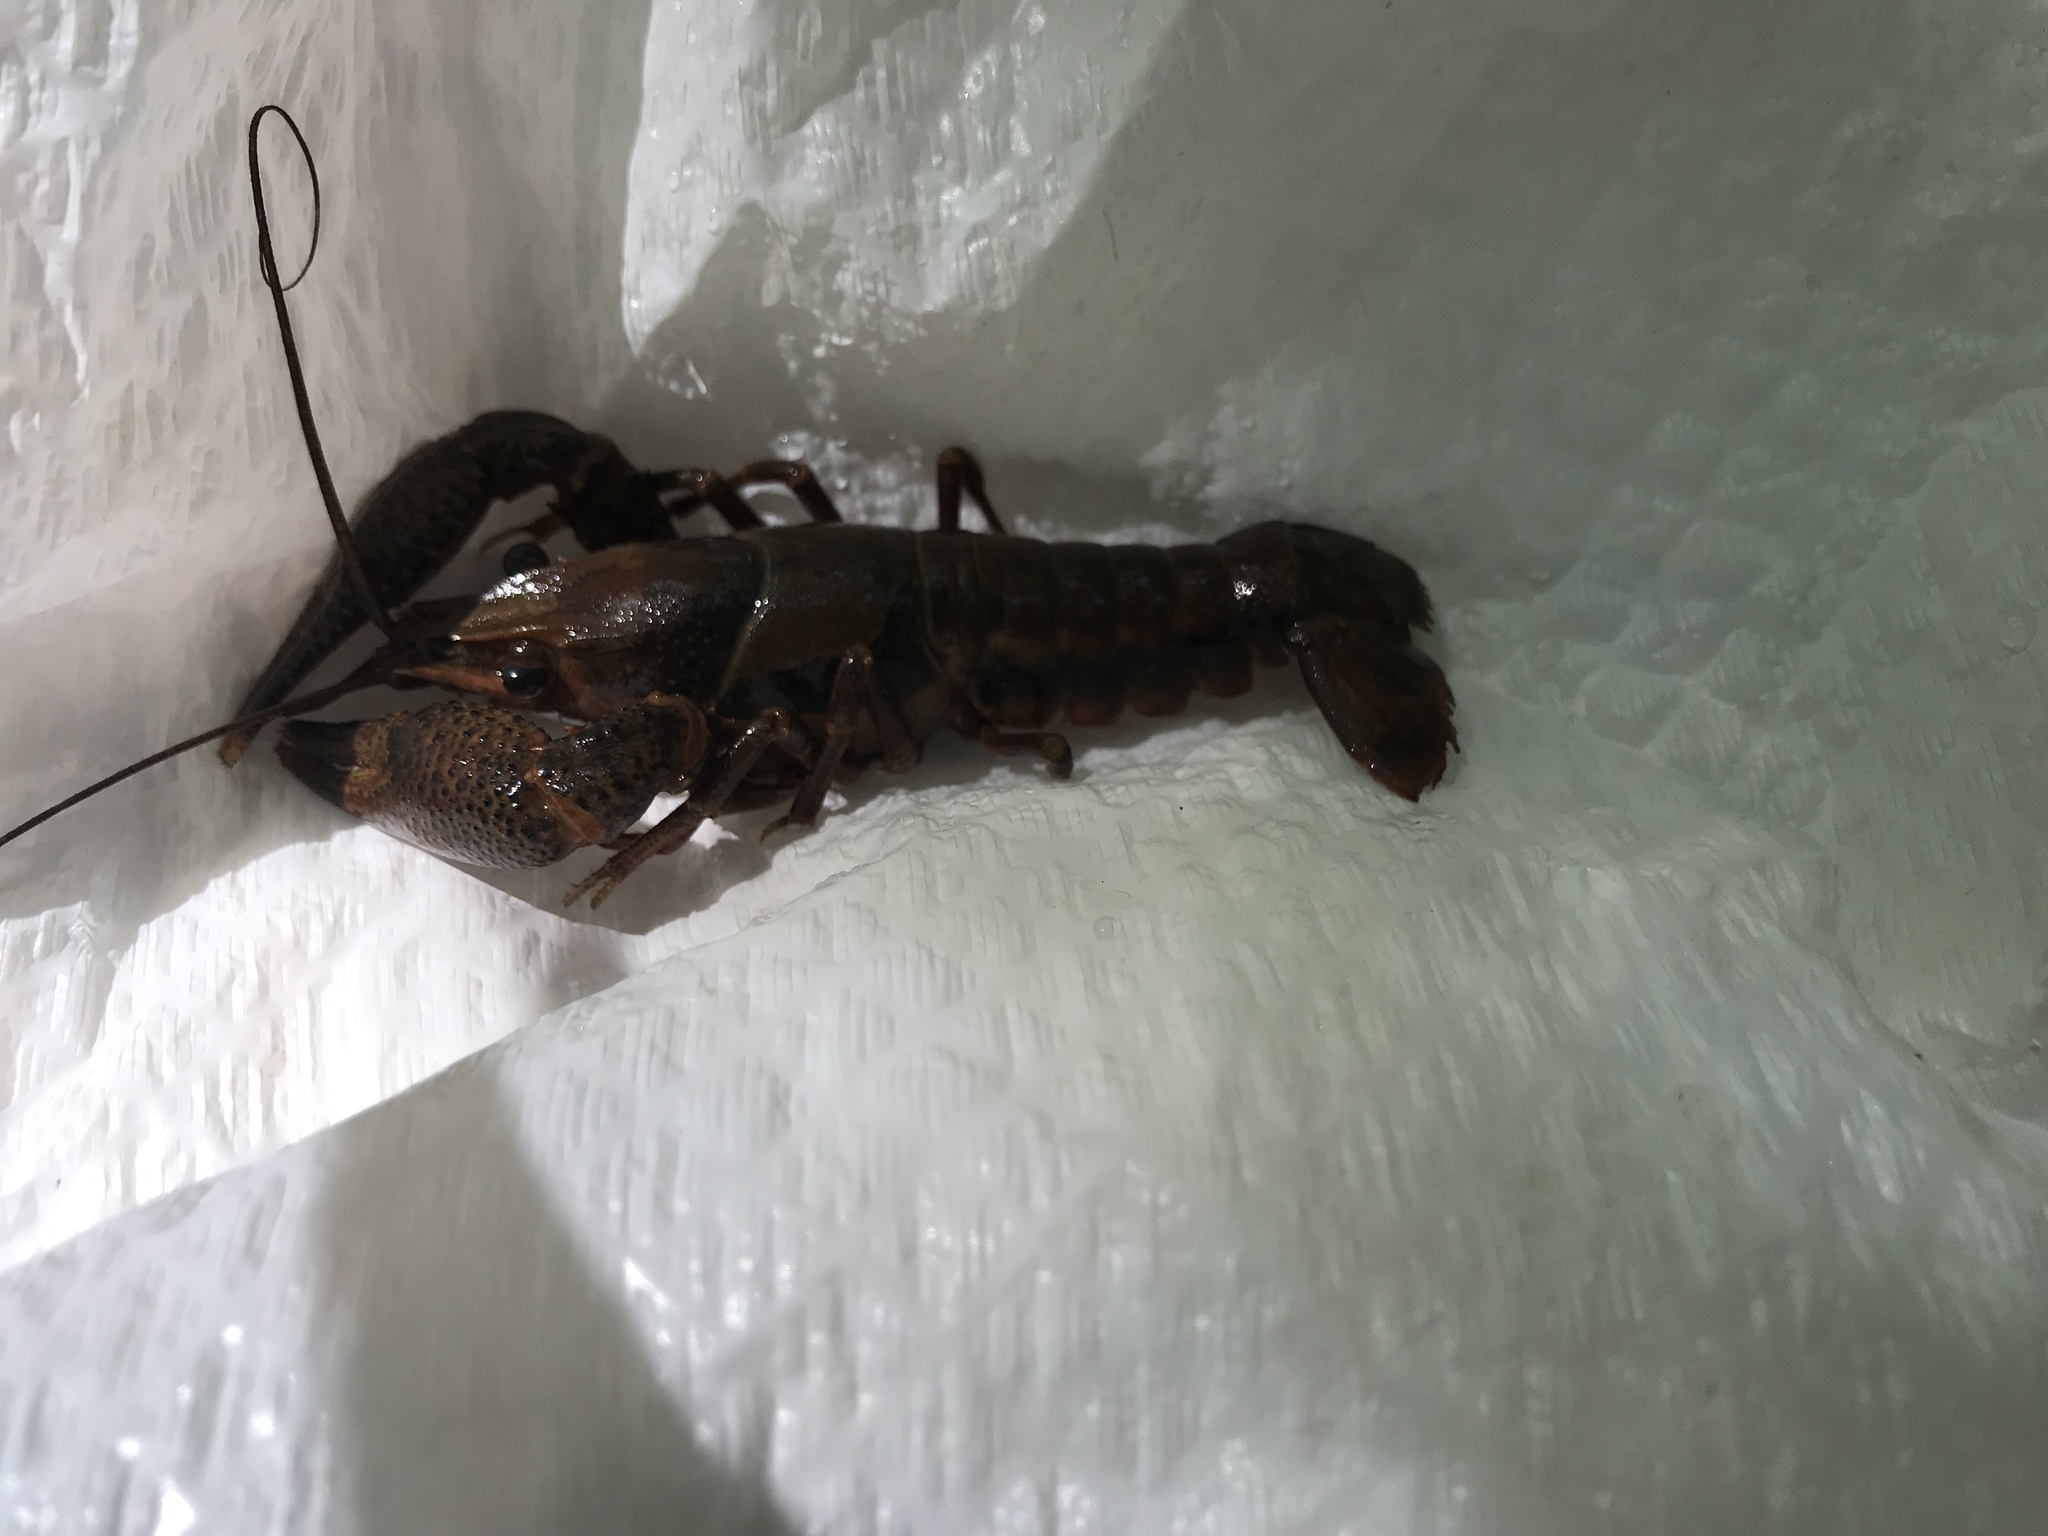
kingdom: Animalia
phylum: Arthropoda
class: Malacostraca
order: Decapoda
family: Cambaridae
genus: Procambarus
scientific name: Procambarus dupratzi
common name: Southwestern creek crayfish
